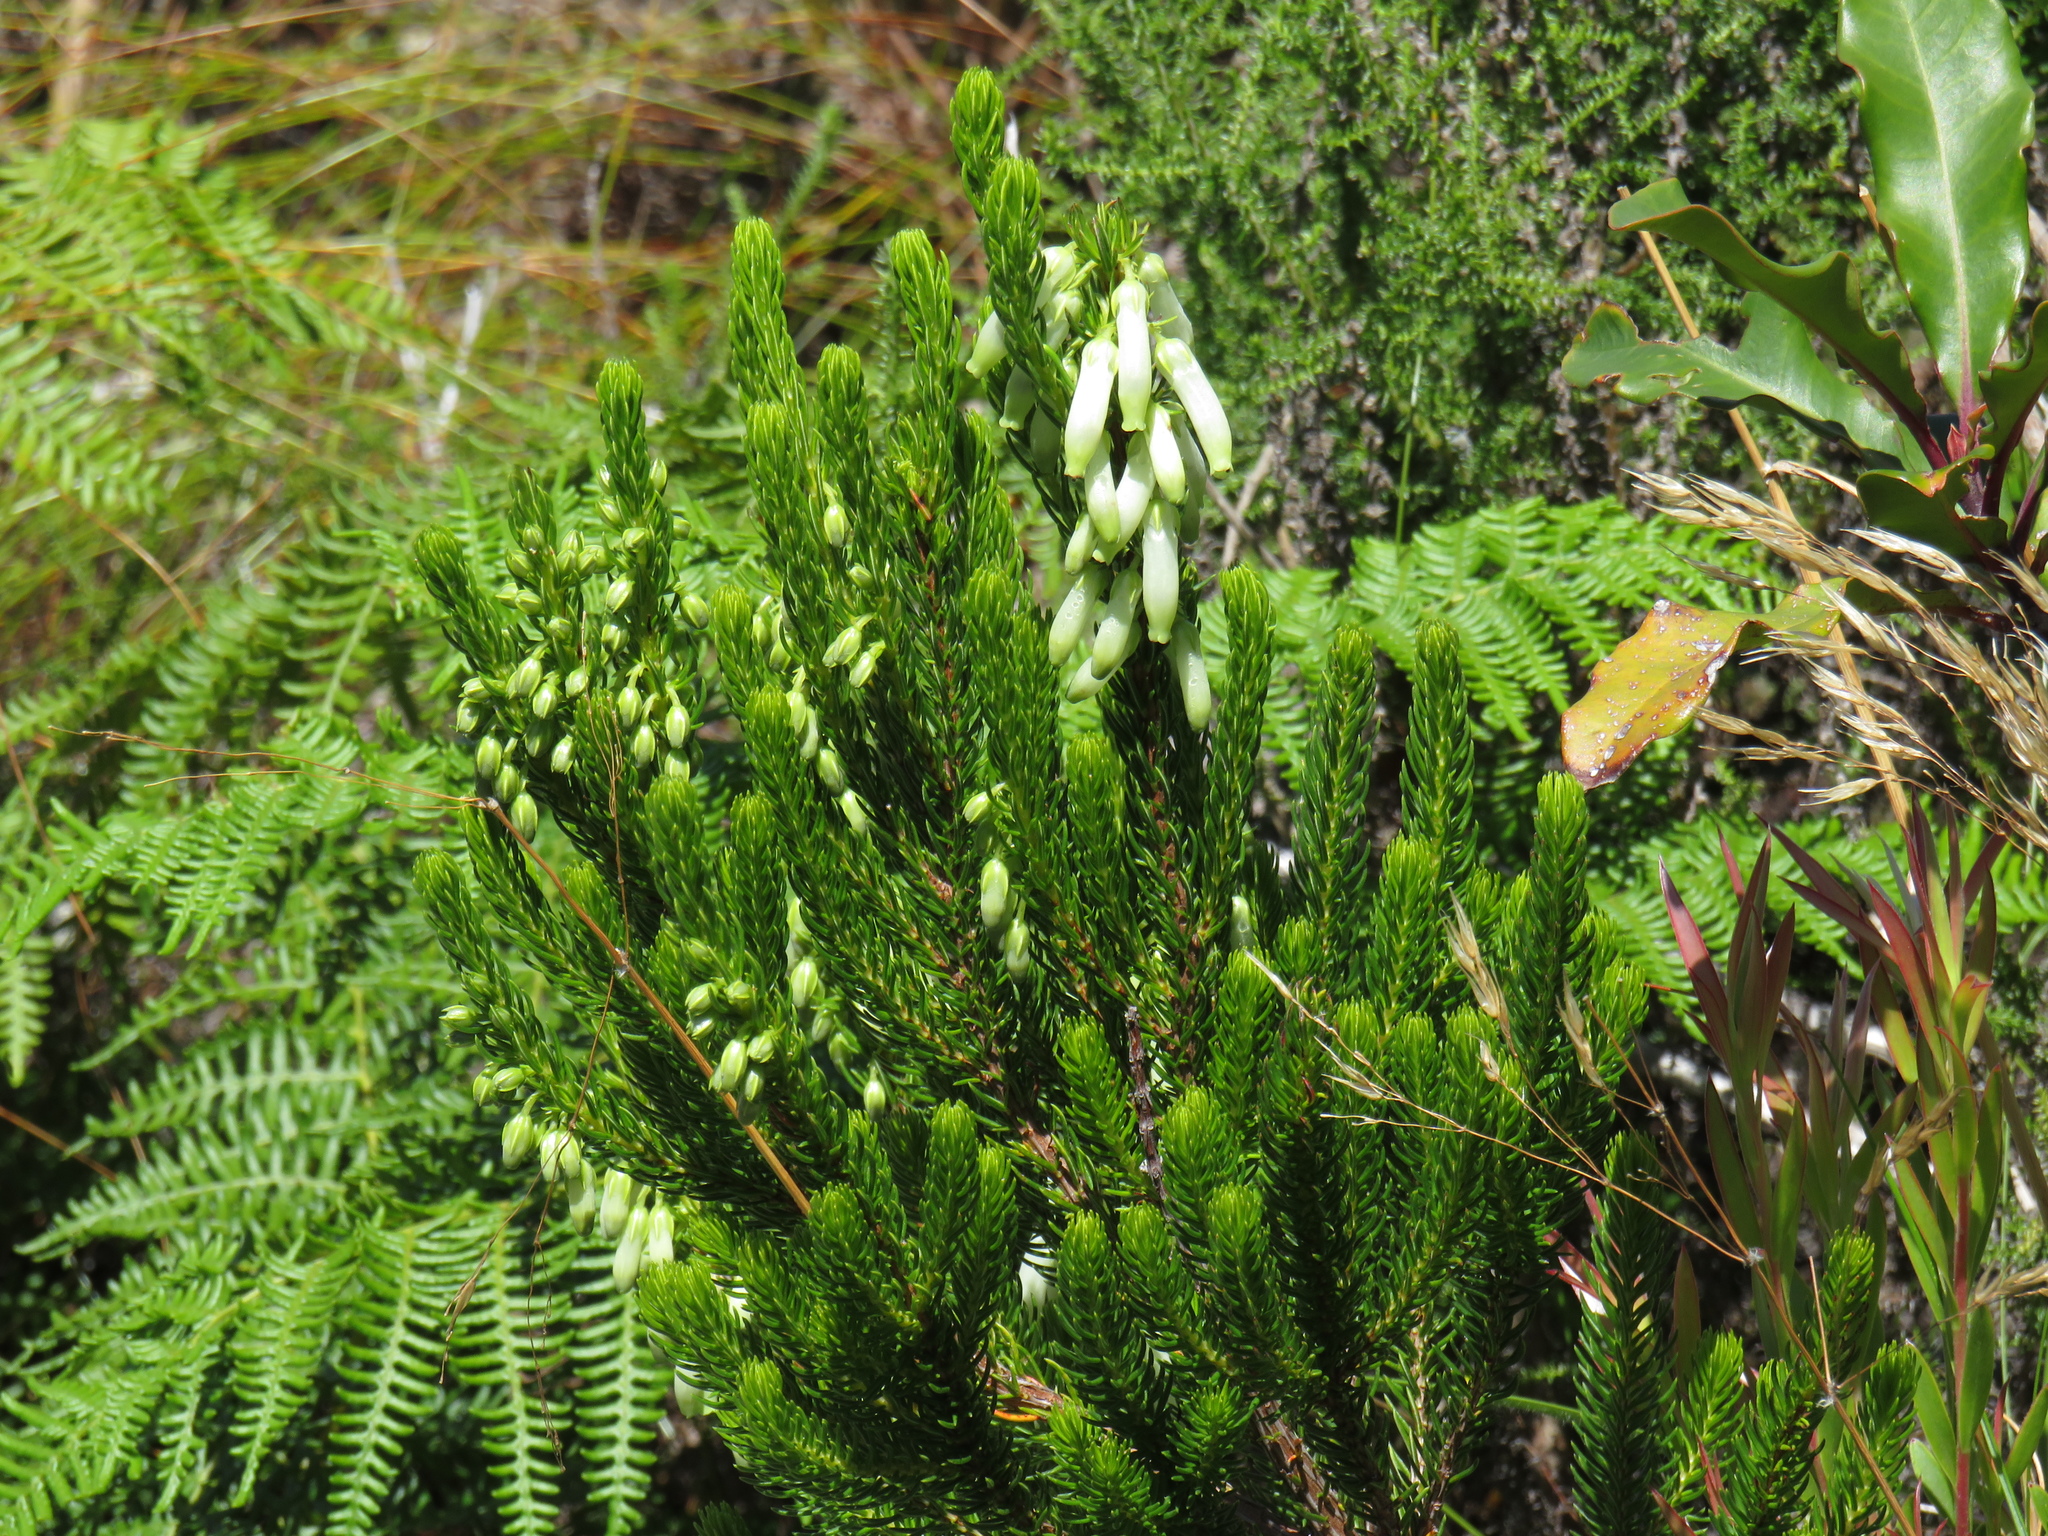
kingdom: Plantae
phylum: Tracheophyta
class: Magnoliopsida
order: Ericales
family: Ericaceae
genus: Erica
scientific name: Erica mammosa
